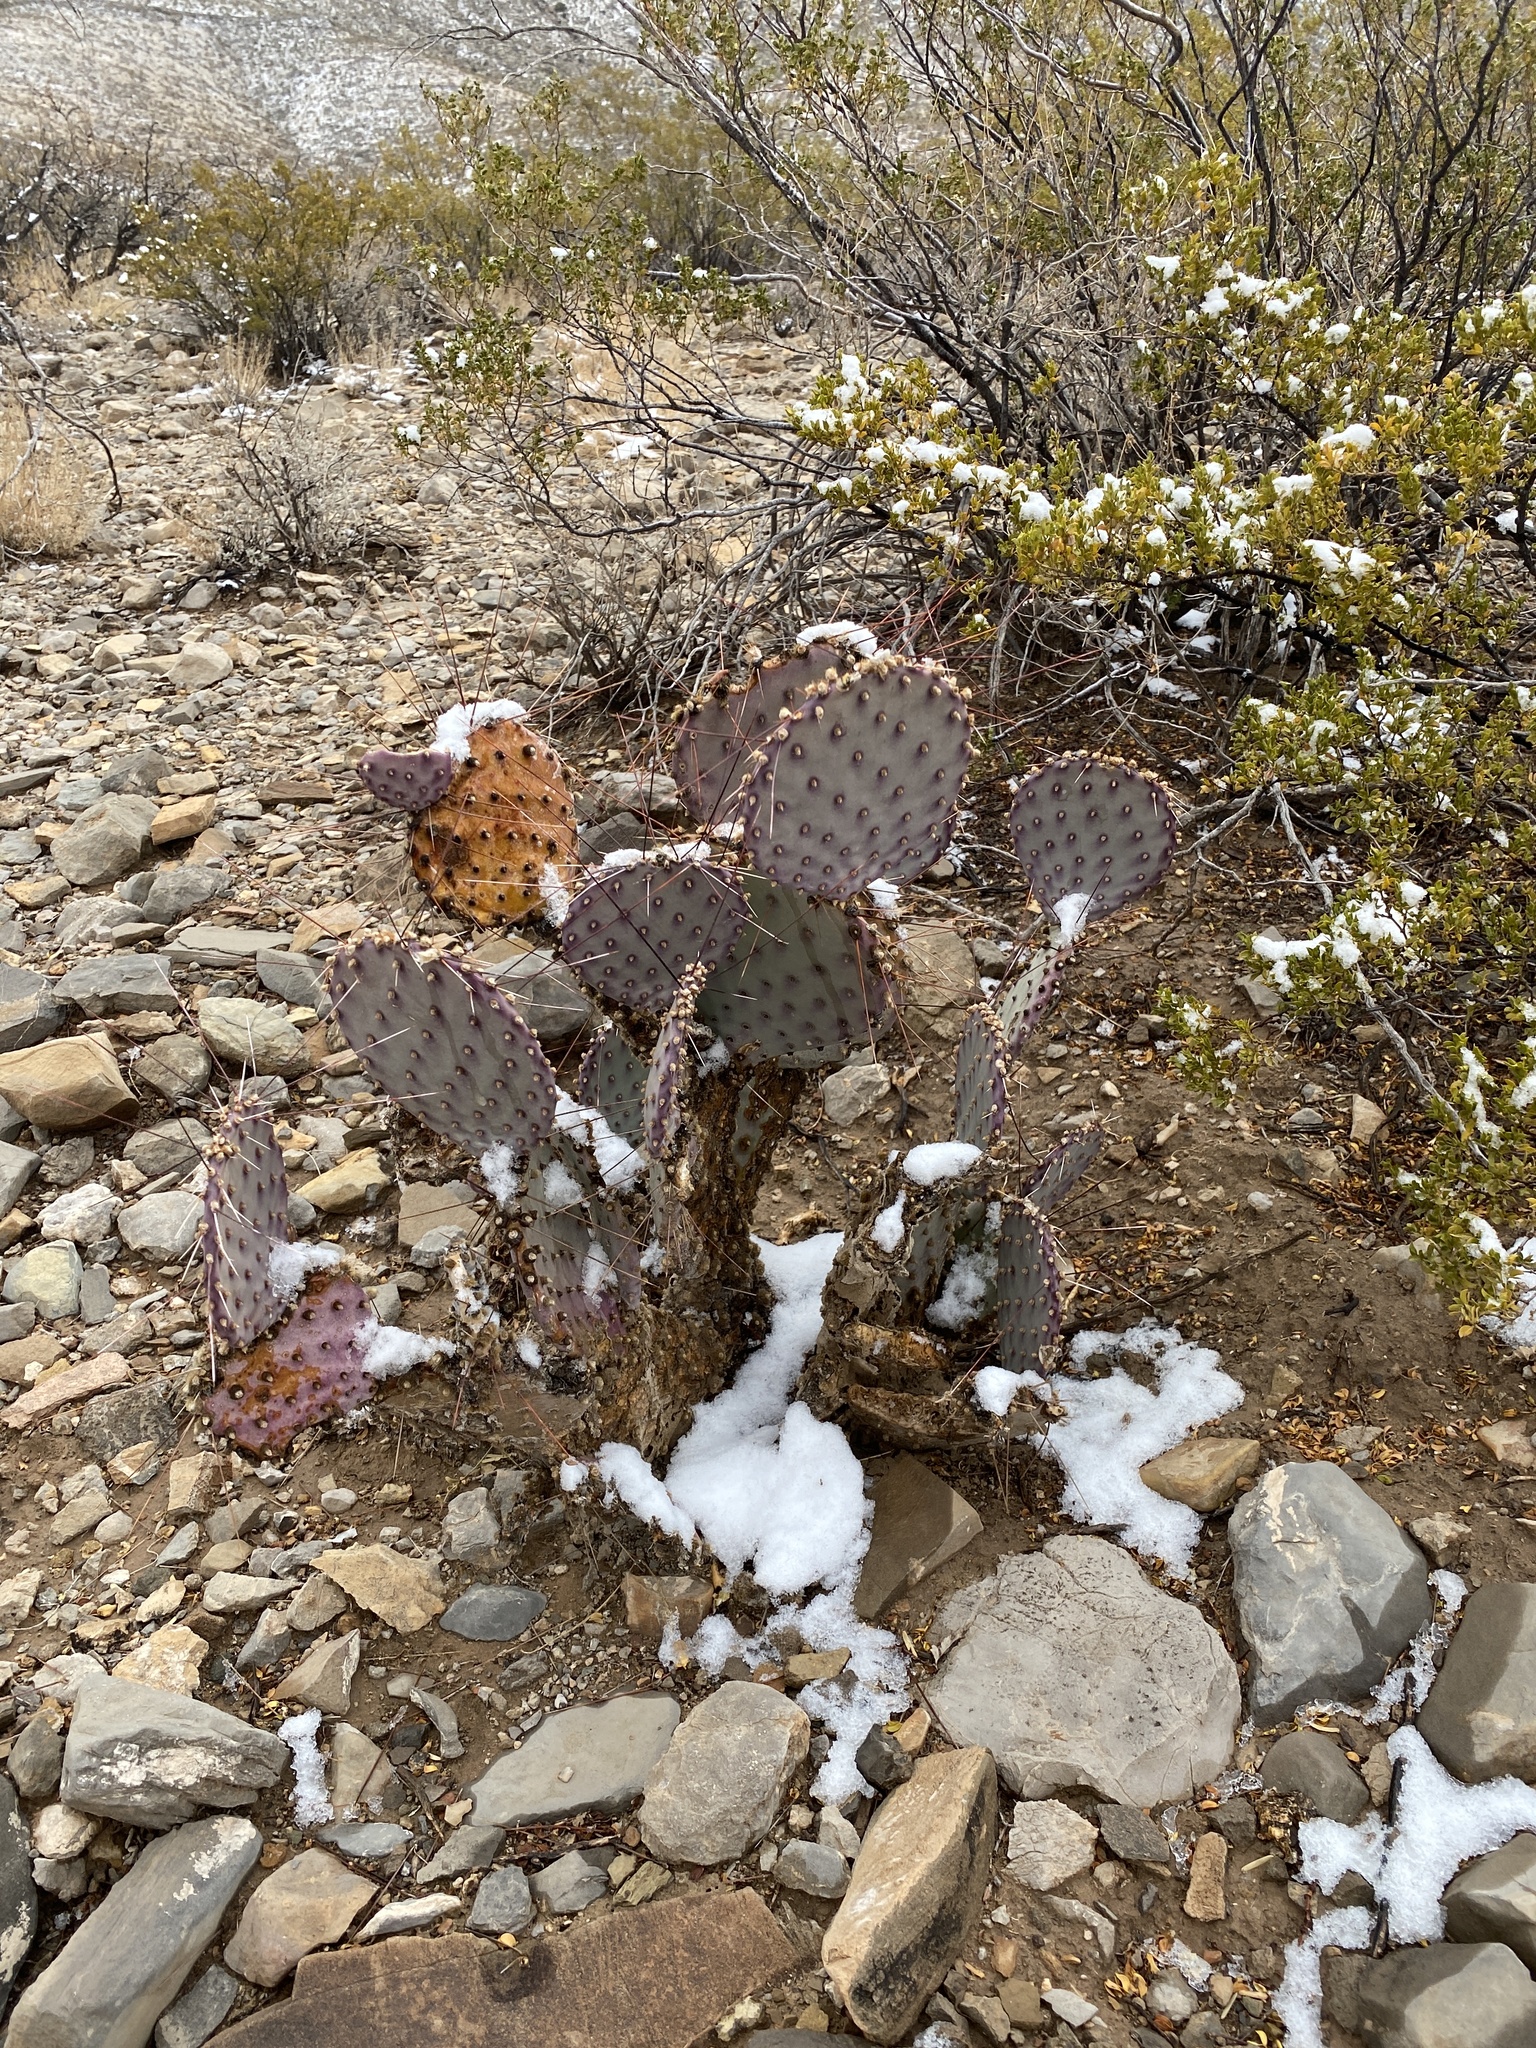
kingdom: Plantae
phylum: Tracheophyta
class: Magnoliopsida
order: Caryophyllales
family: Cactaceae
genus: Opuntia
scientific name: Opuntia macrocentra
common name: Purple prickly-pear
